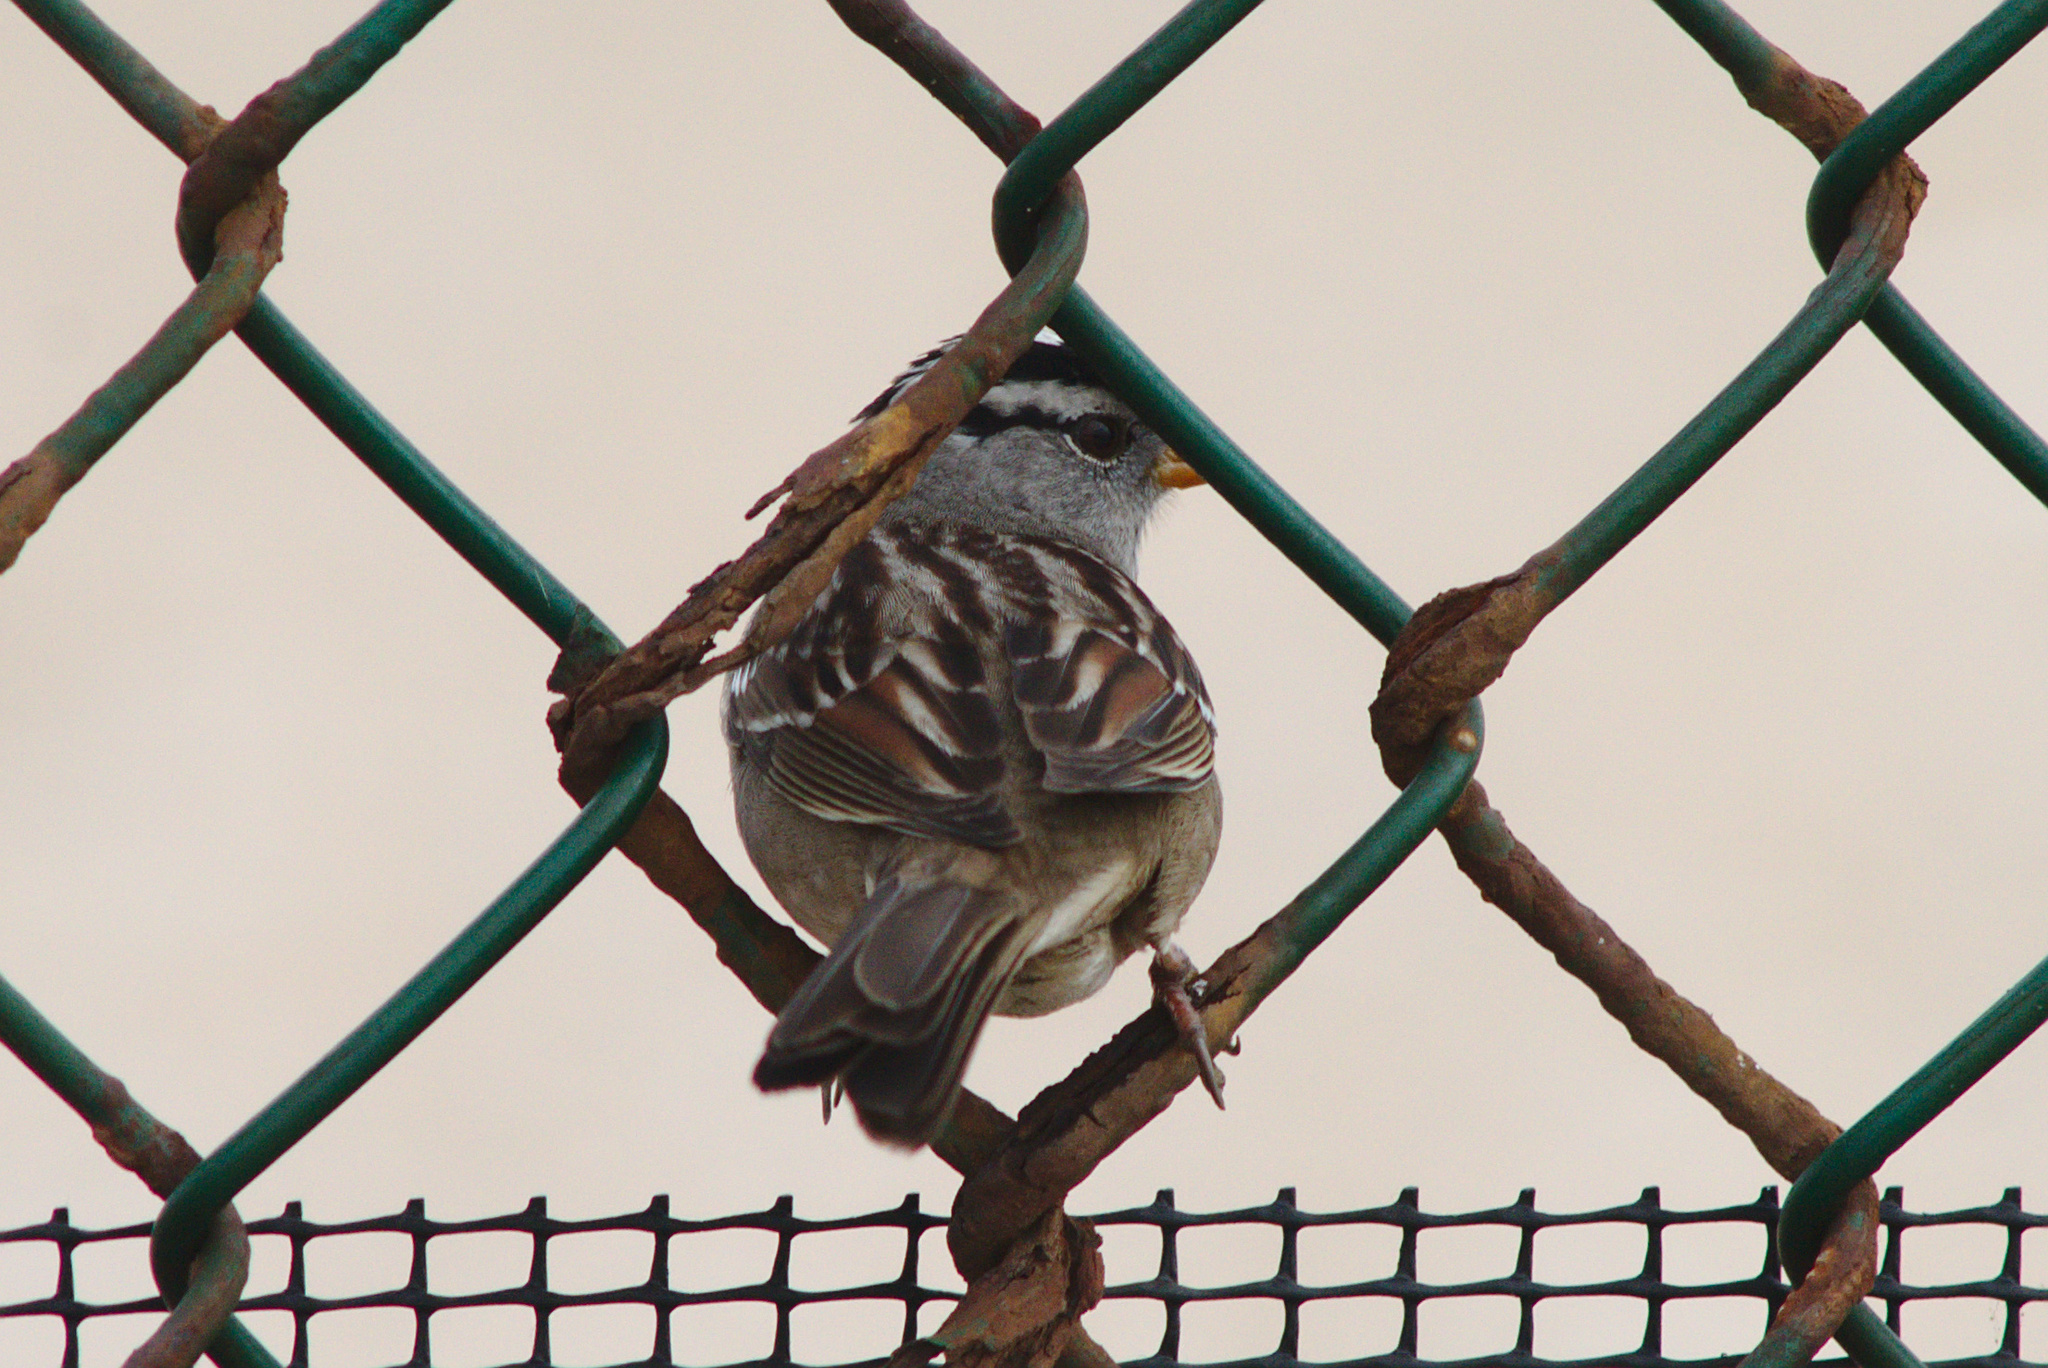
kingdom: Animalia
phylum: Chordata
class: Aves
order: Passeriformes
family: Passerellidae
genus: Zonotrichia
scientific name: Zonotrichia leucophrys
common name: White-crowned sparrow
